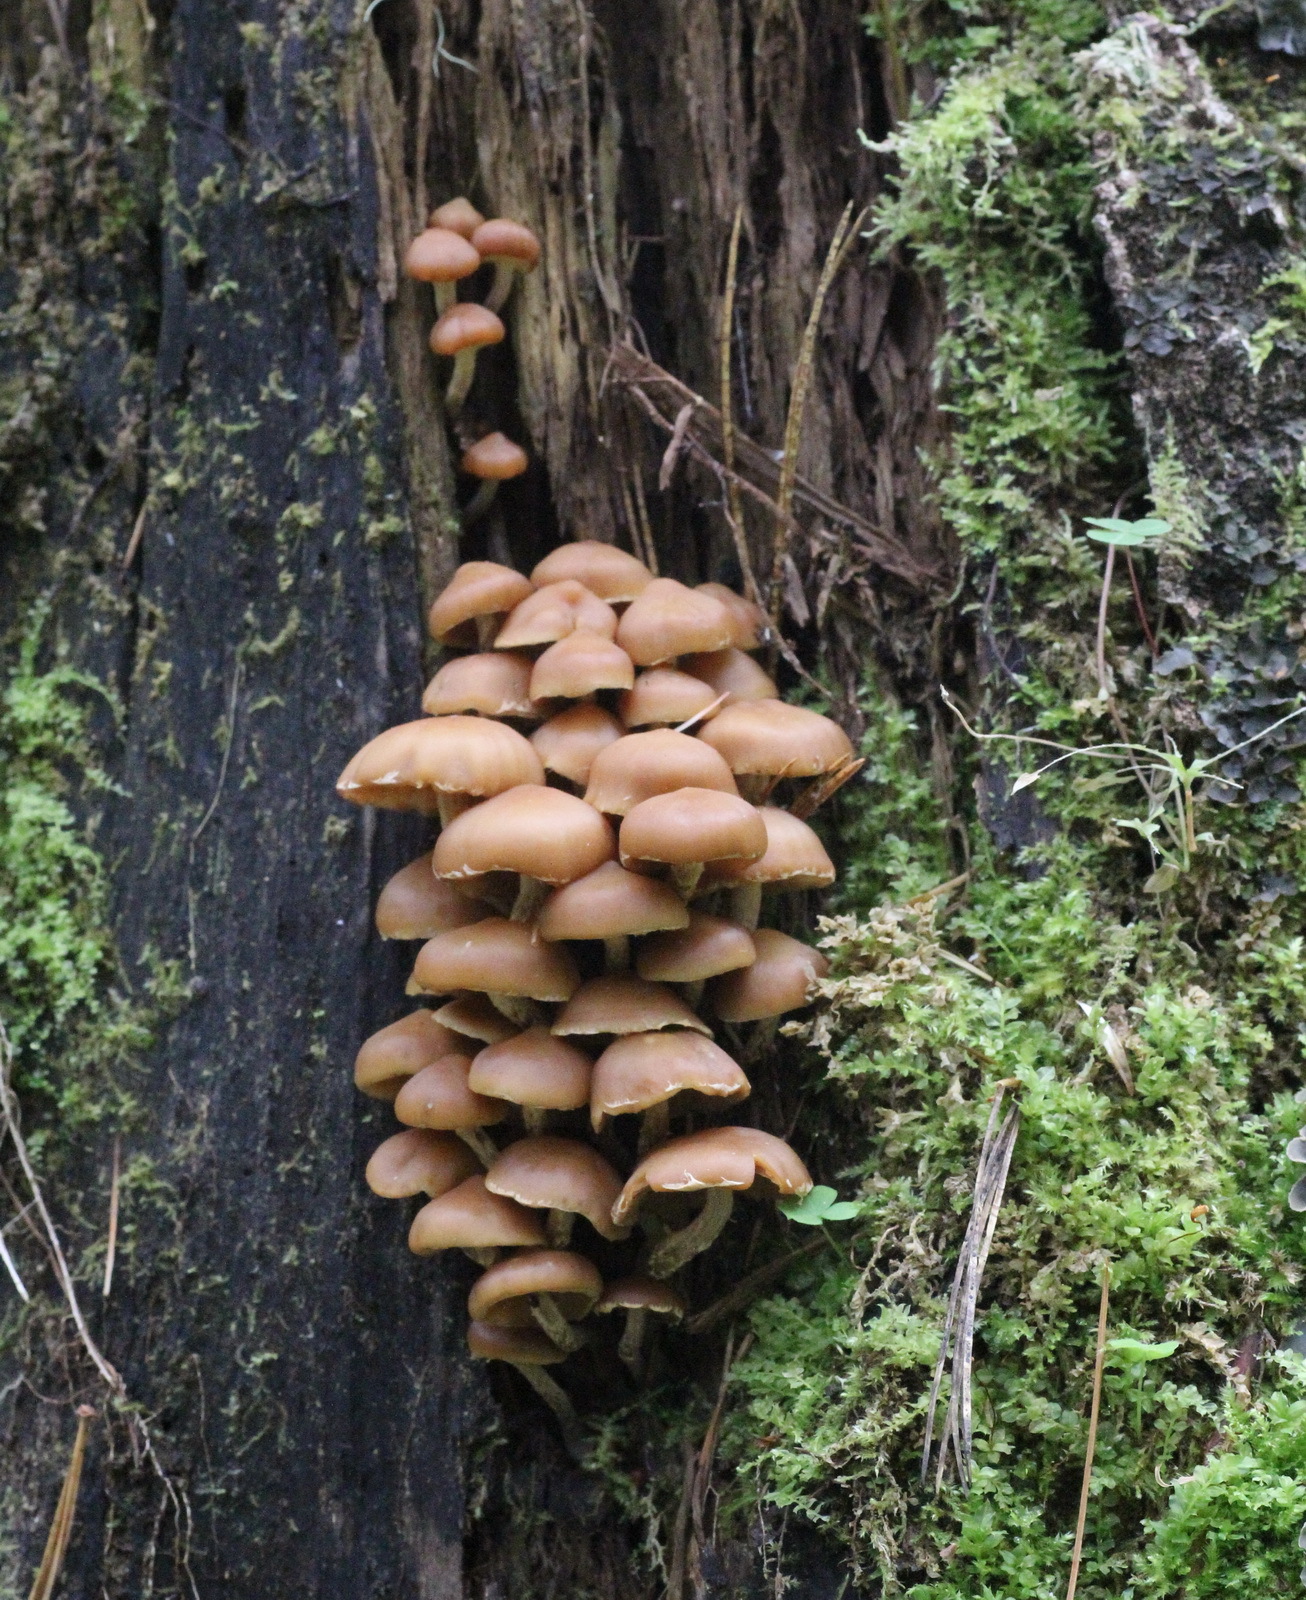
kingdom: Fungi
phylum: Basidiomycota
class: Agaricomycetes
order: Agaricales
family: Strophariaceae
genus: Pholiota
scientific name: Pholiota lignicola
